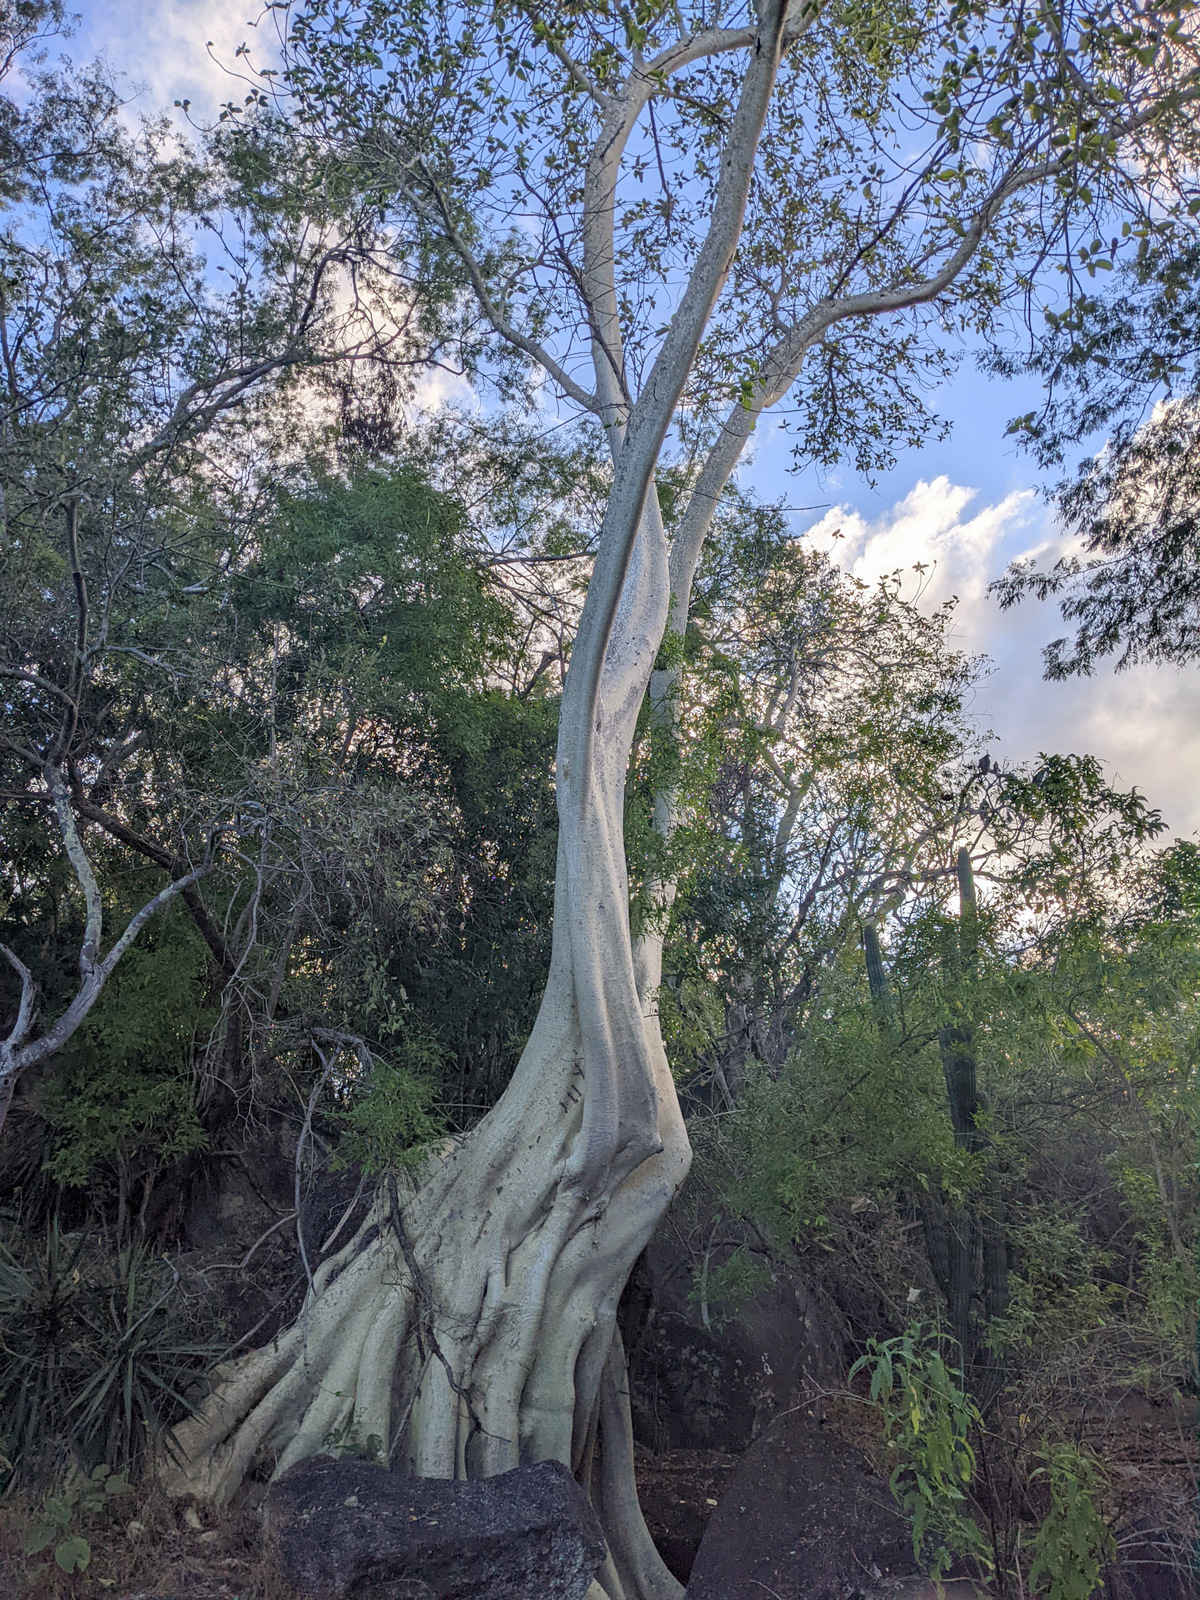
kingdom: Plantae
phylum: Tracheophyta
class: Magnoliopsida
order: Rosales
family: Moraceae
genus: Ficus
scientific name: Ficus petiolaris
